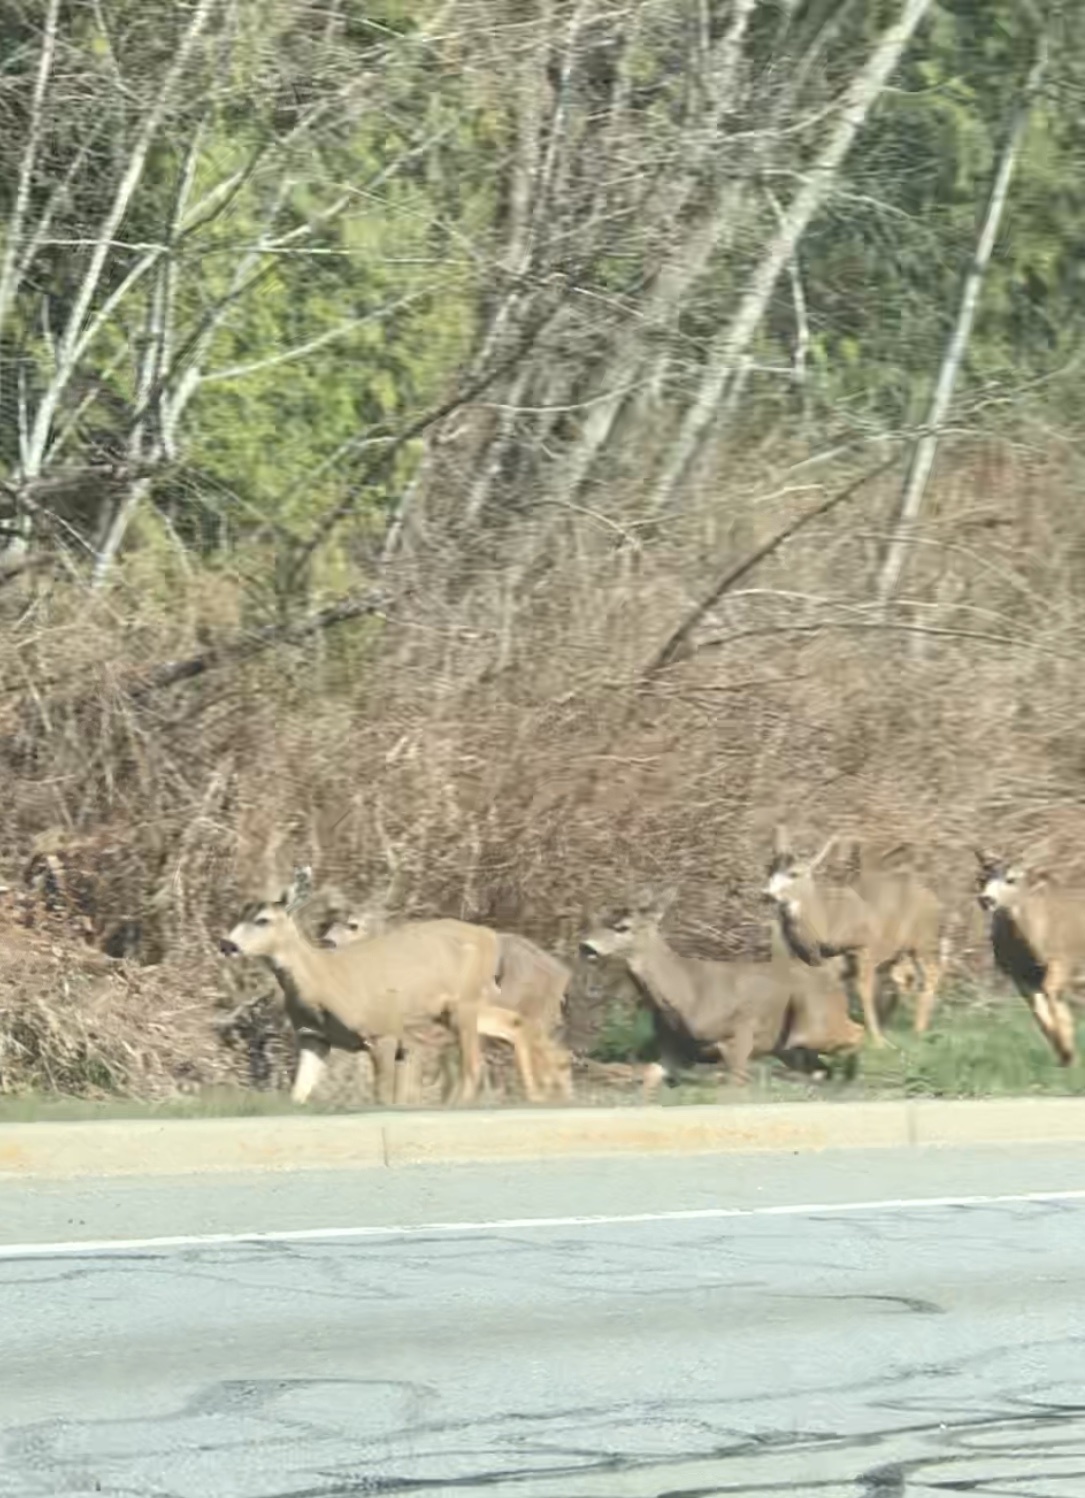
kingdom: Animalia
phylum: Chordata
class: Mammalia
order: Artiodactyla
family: Cervidae
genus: Odocoileus
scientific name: Odocoileus hemionus
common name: Mule deer
